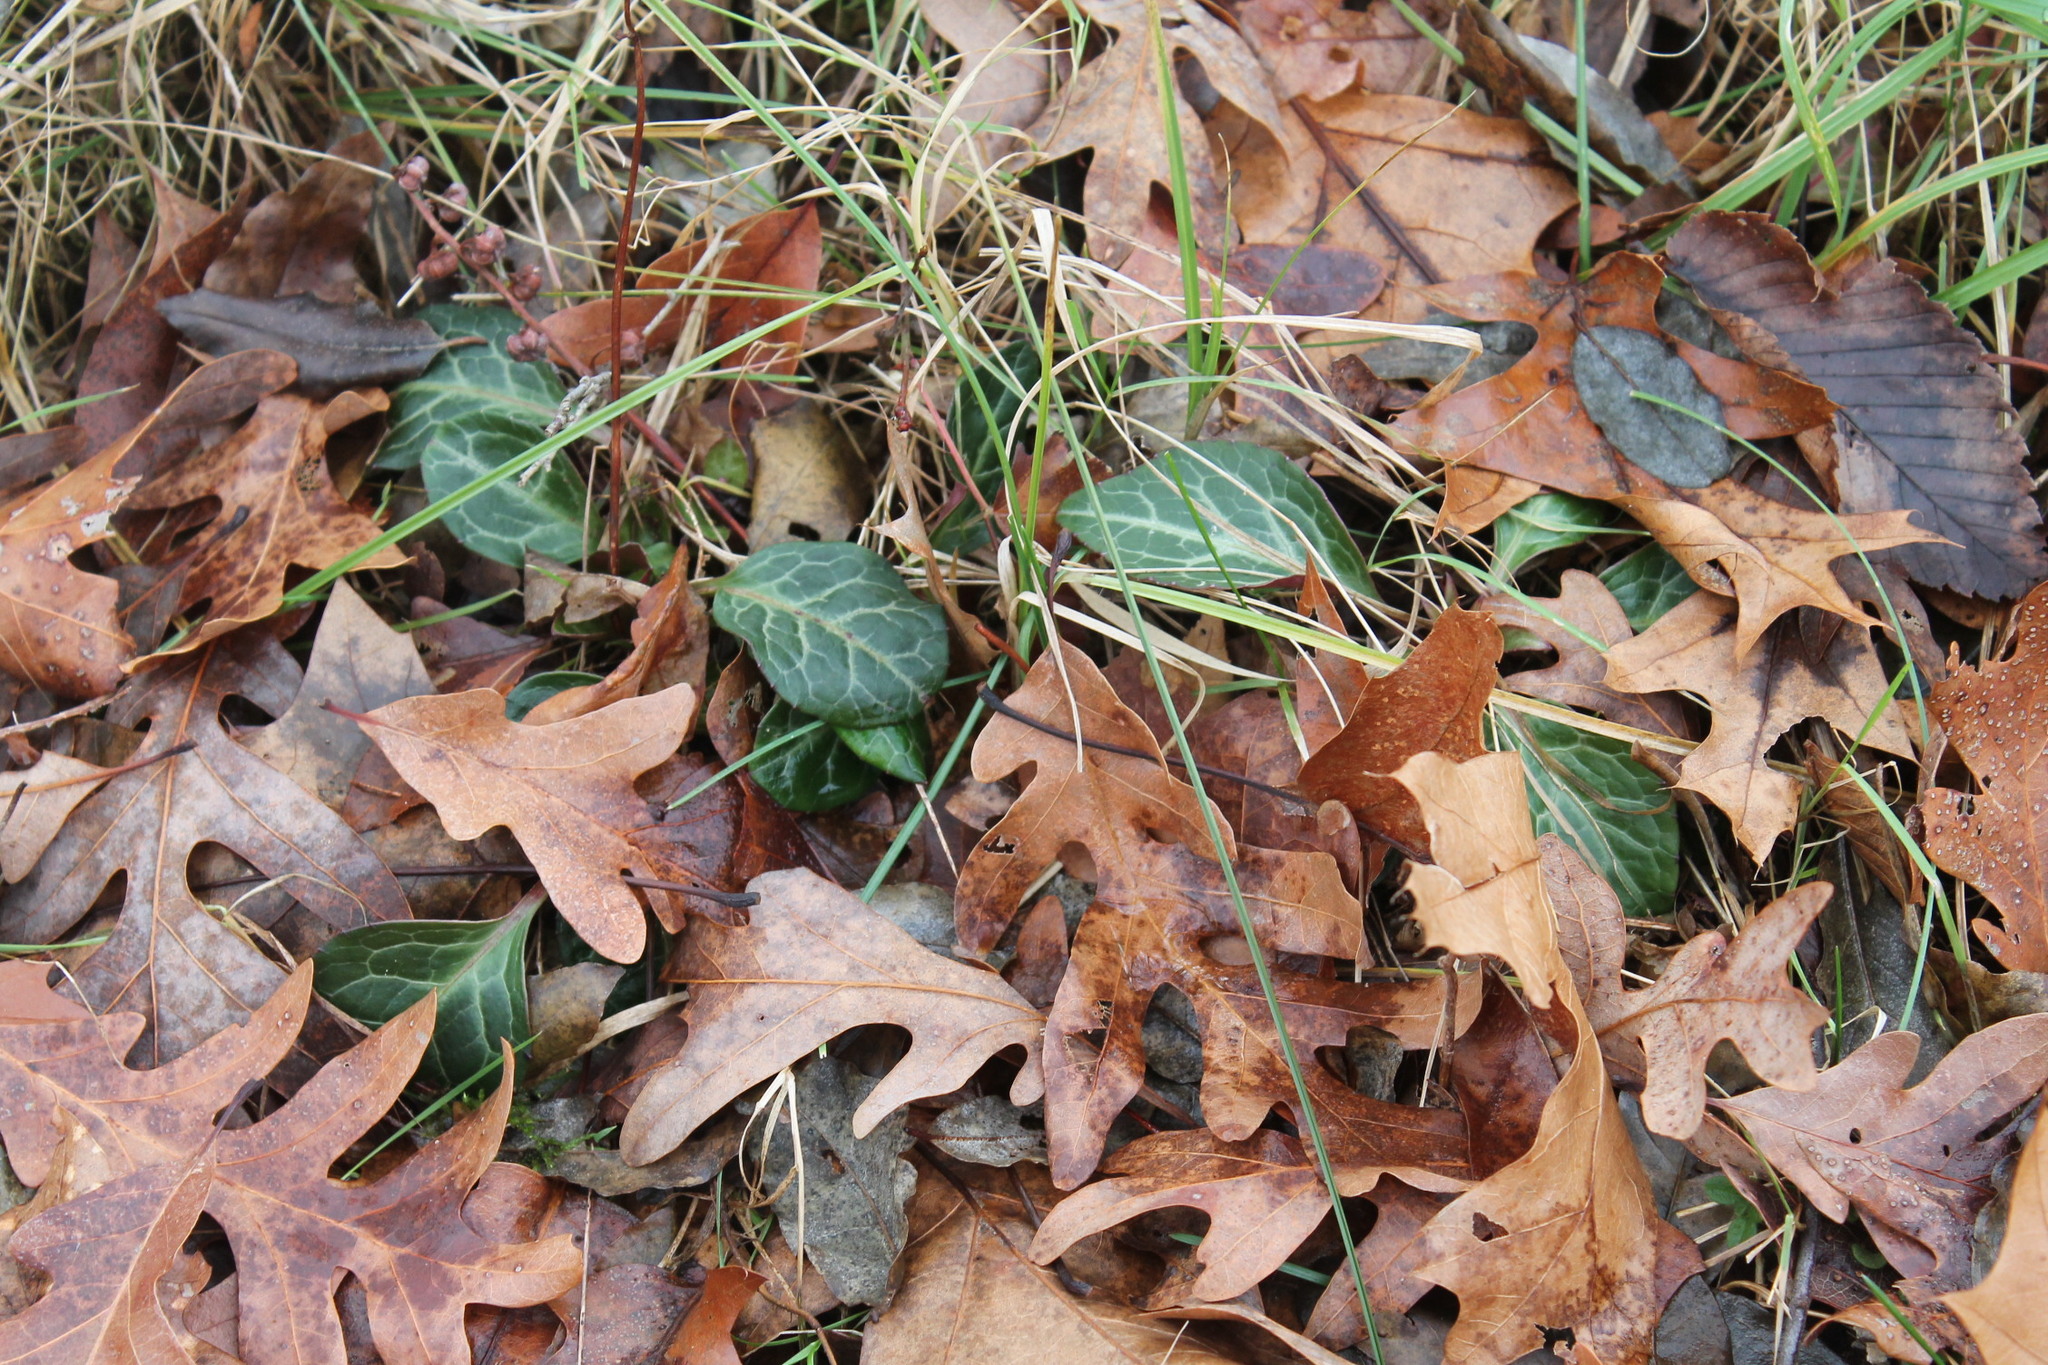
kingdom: Plantae
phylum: Tracheophyta
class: Magnoliopsida
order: Ericales
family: Ericaceae
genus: Pyrola
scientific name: Pyrola americana
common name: American wintergreen
